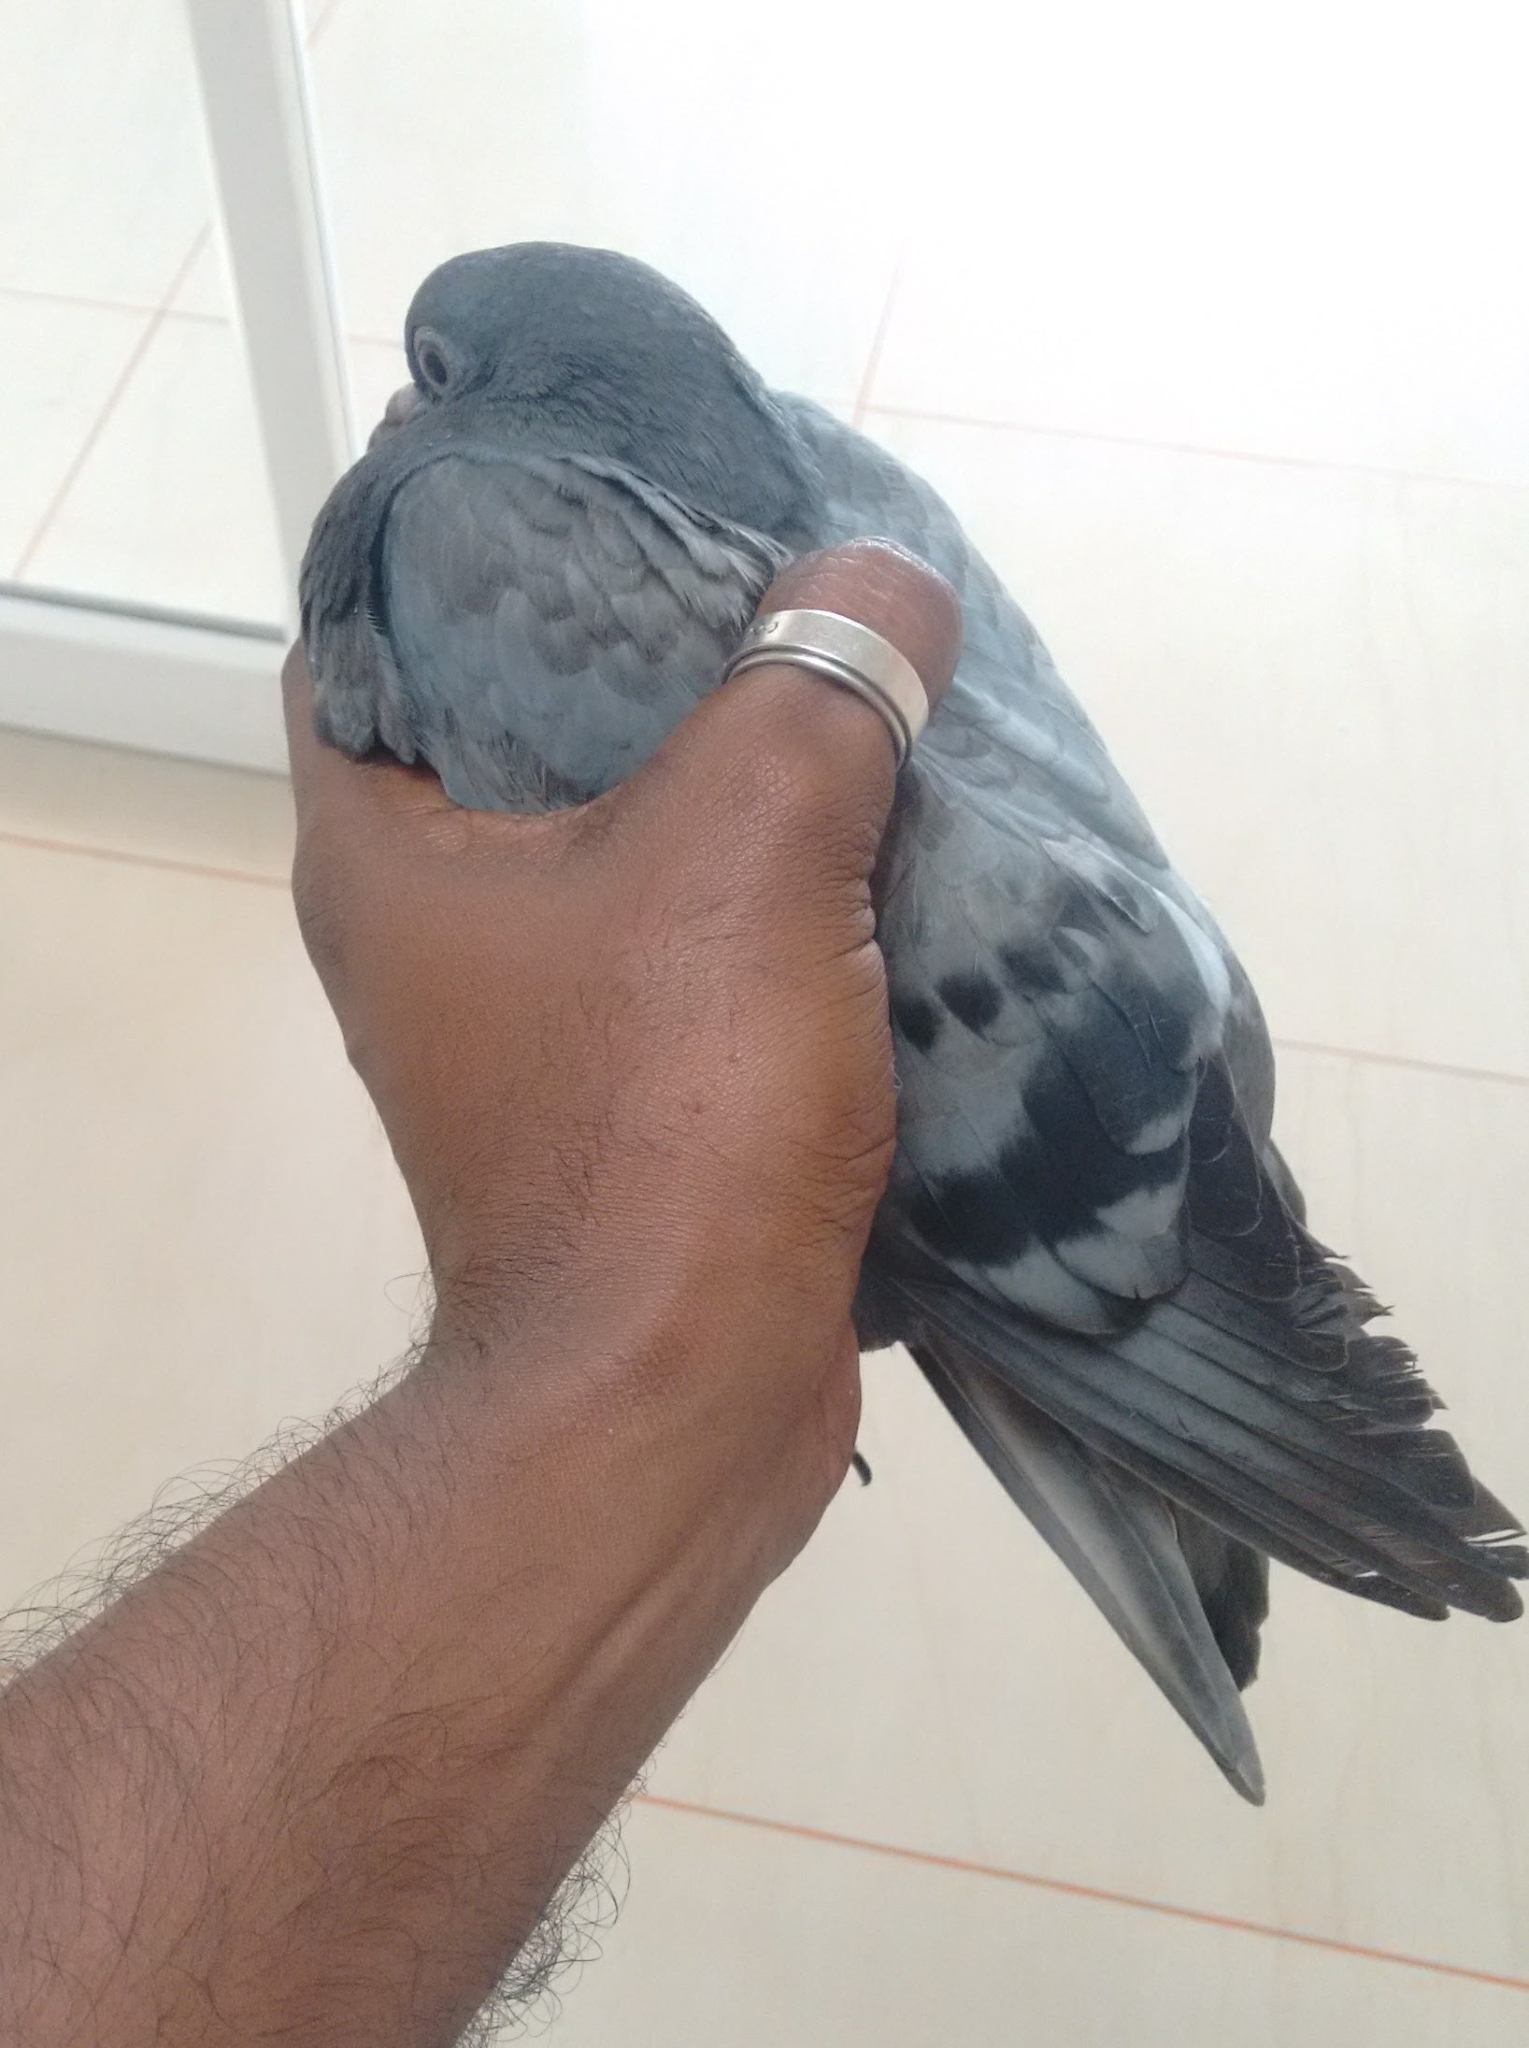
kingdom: Animalia
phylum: Chordata
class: Aves
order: Columbiformes
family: Columbidae
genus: Columba
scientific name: Columba livia
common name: Rock pigeon
